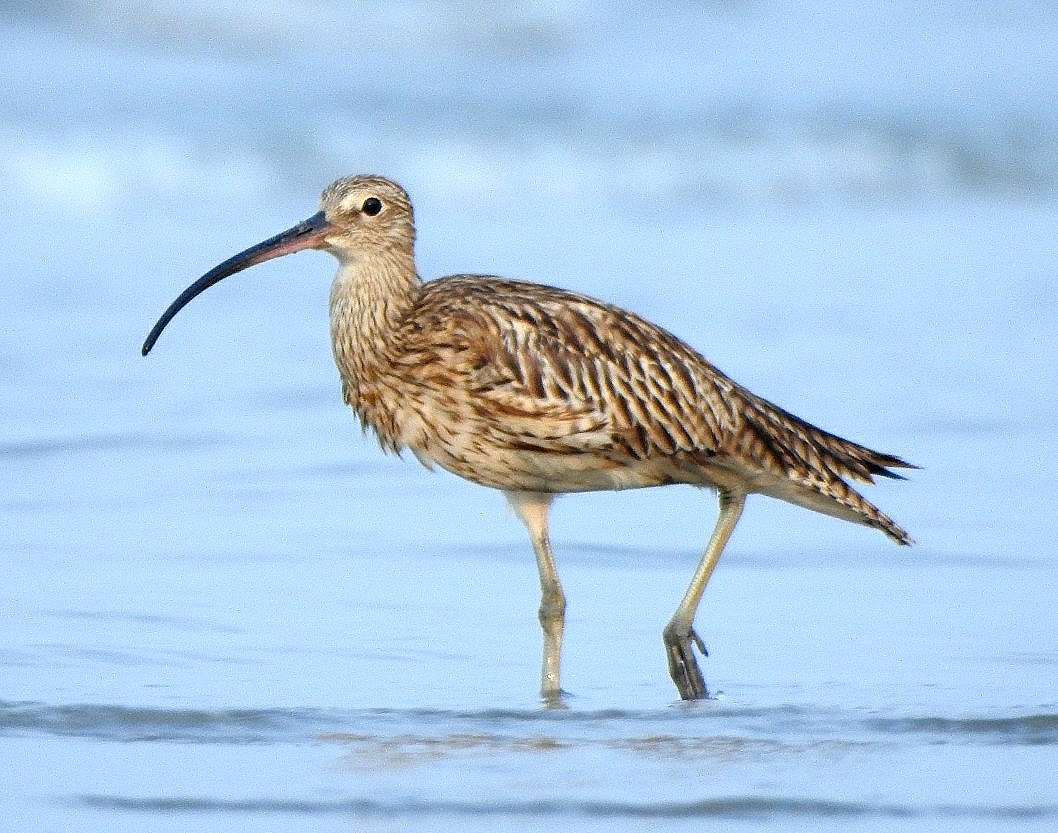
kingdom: Animalia
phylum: Chordata
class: Aves
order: Charadriiformes
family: Scolopacidae
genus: Numenius
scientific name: Numenius arquata
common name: Eurasian curlew
